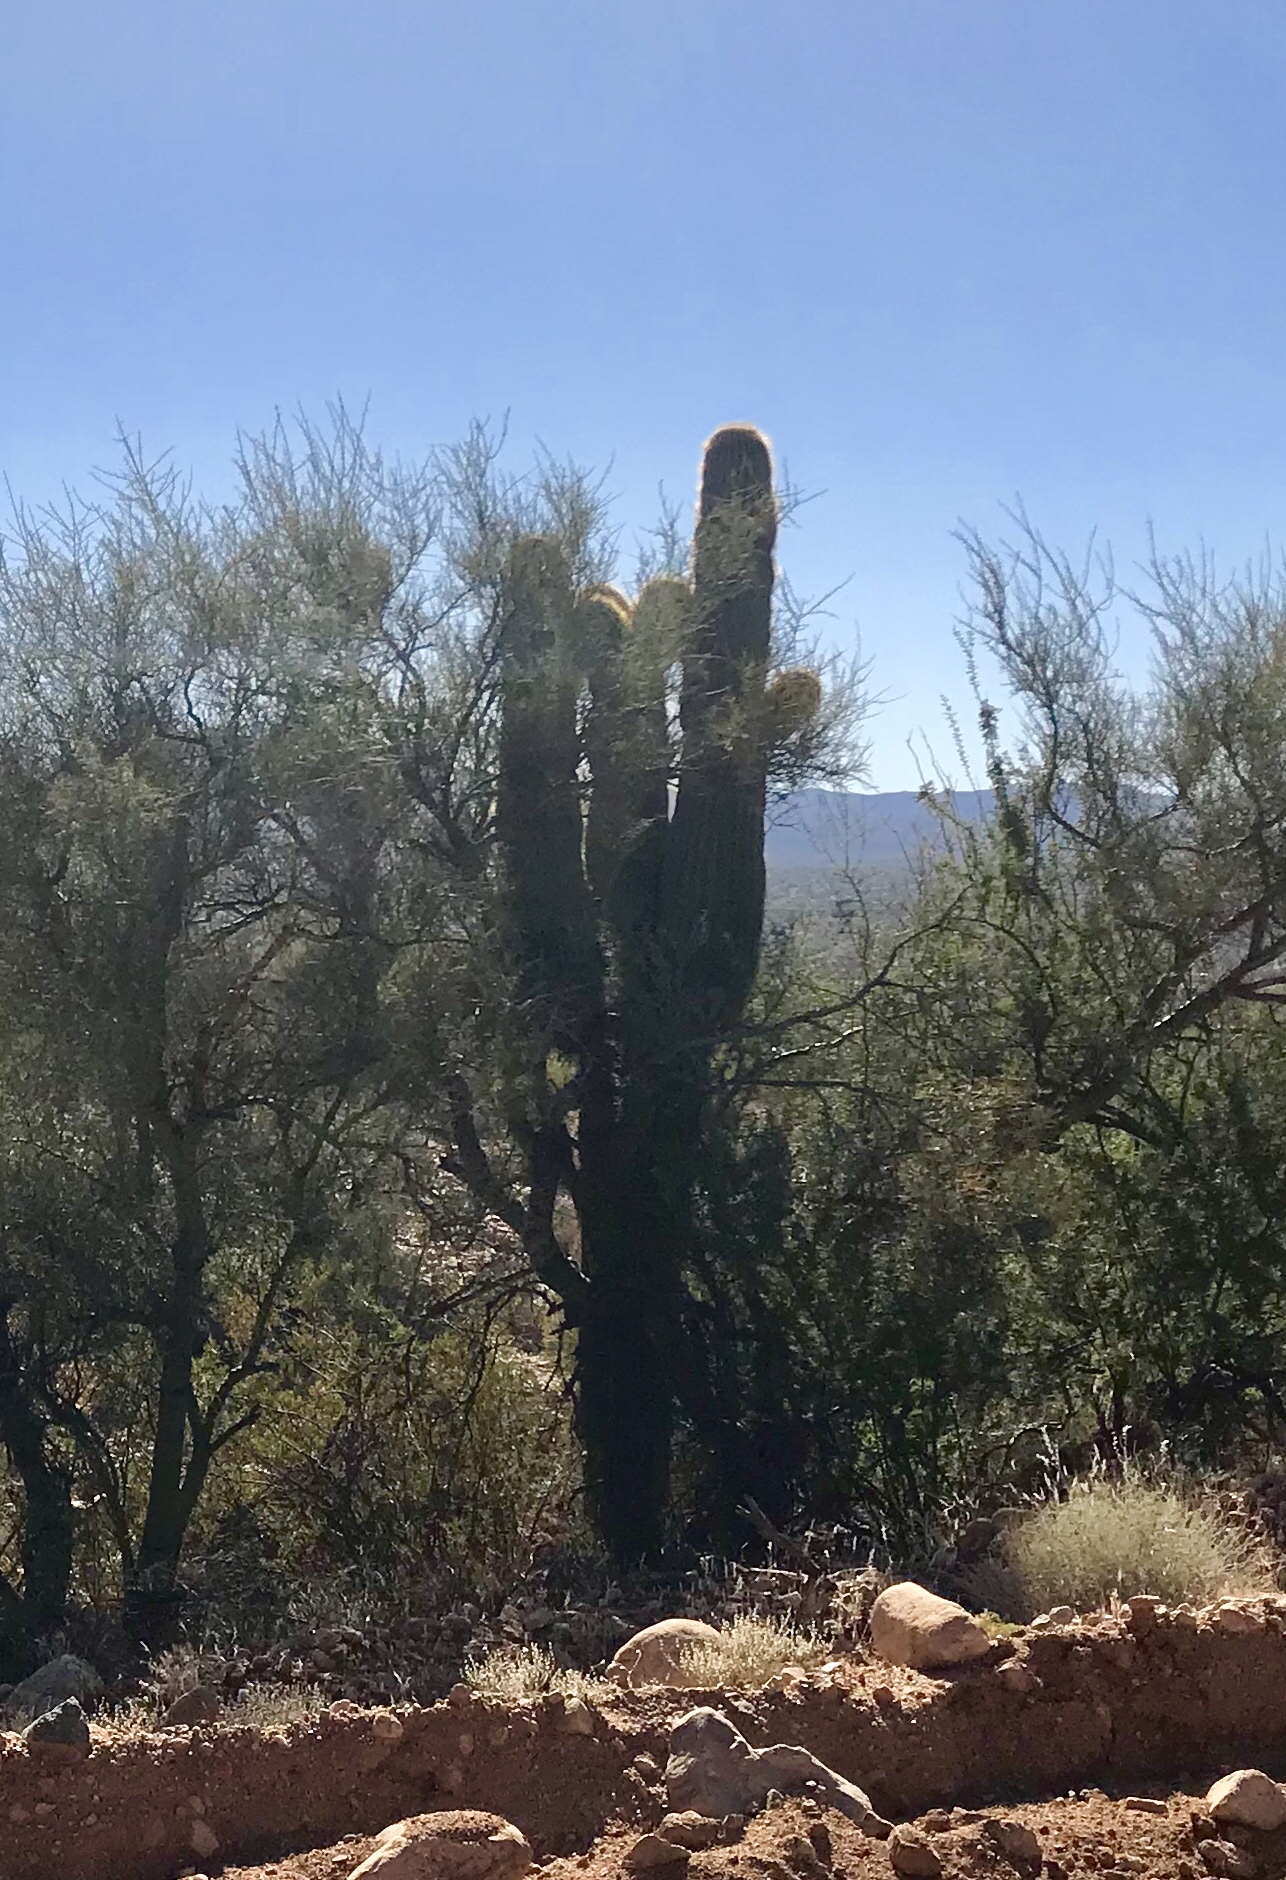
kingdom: Plantae
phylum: Tracheophyta
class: Magnoliopsida
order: Caryophyllales
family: Cactaceae
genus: Carnegiea
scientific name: Carnegiea gigantea
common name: Saguaro
